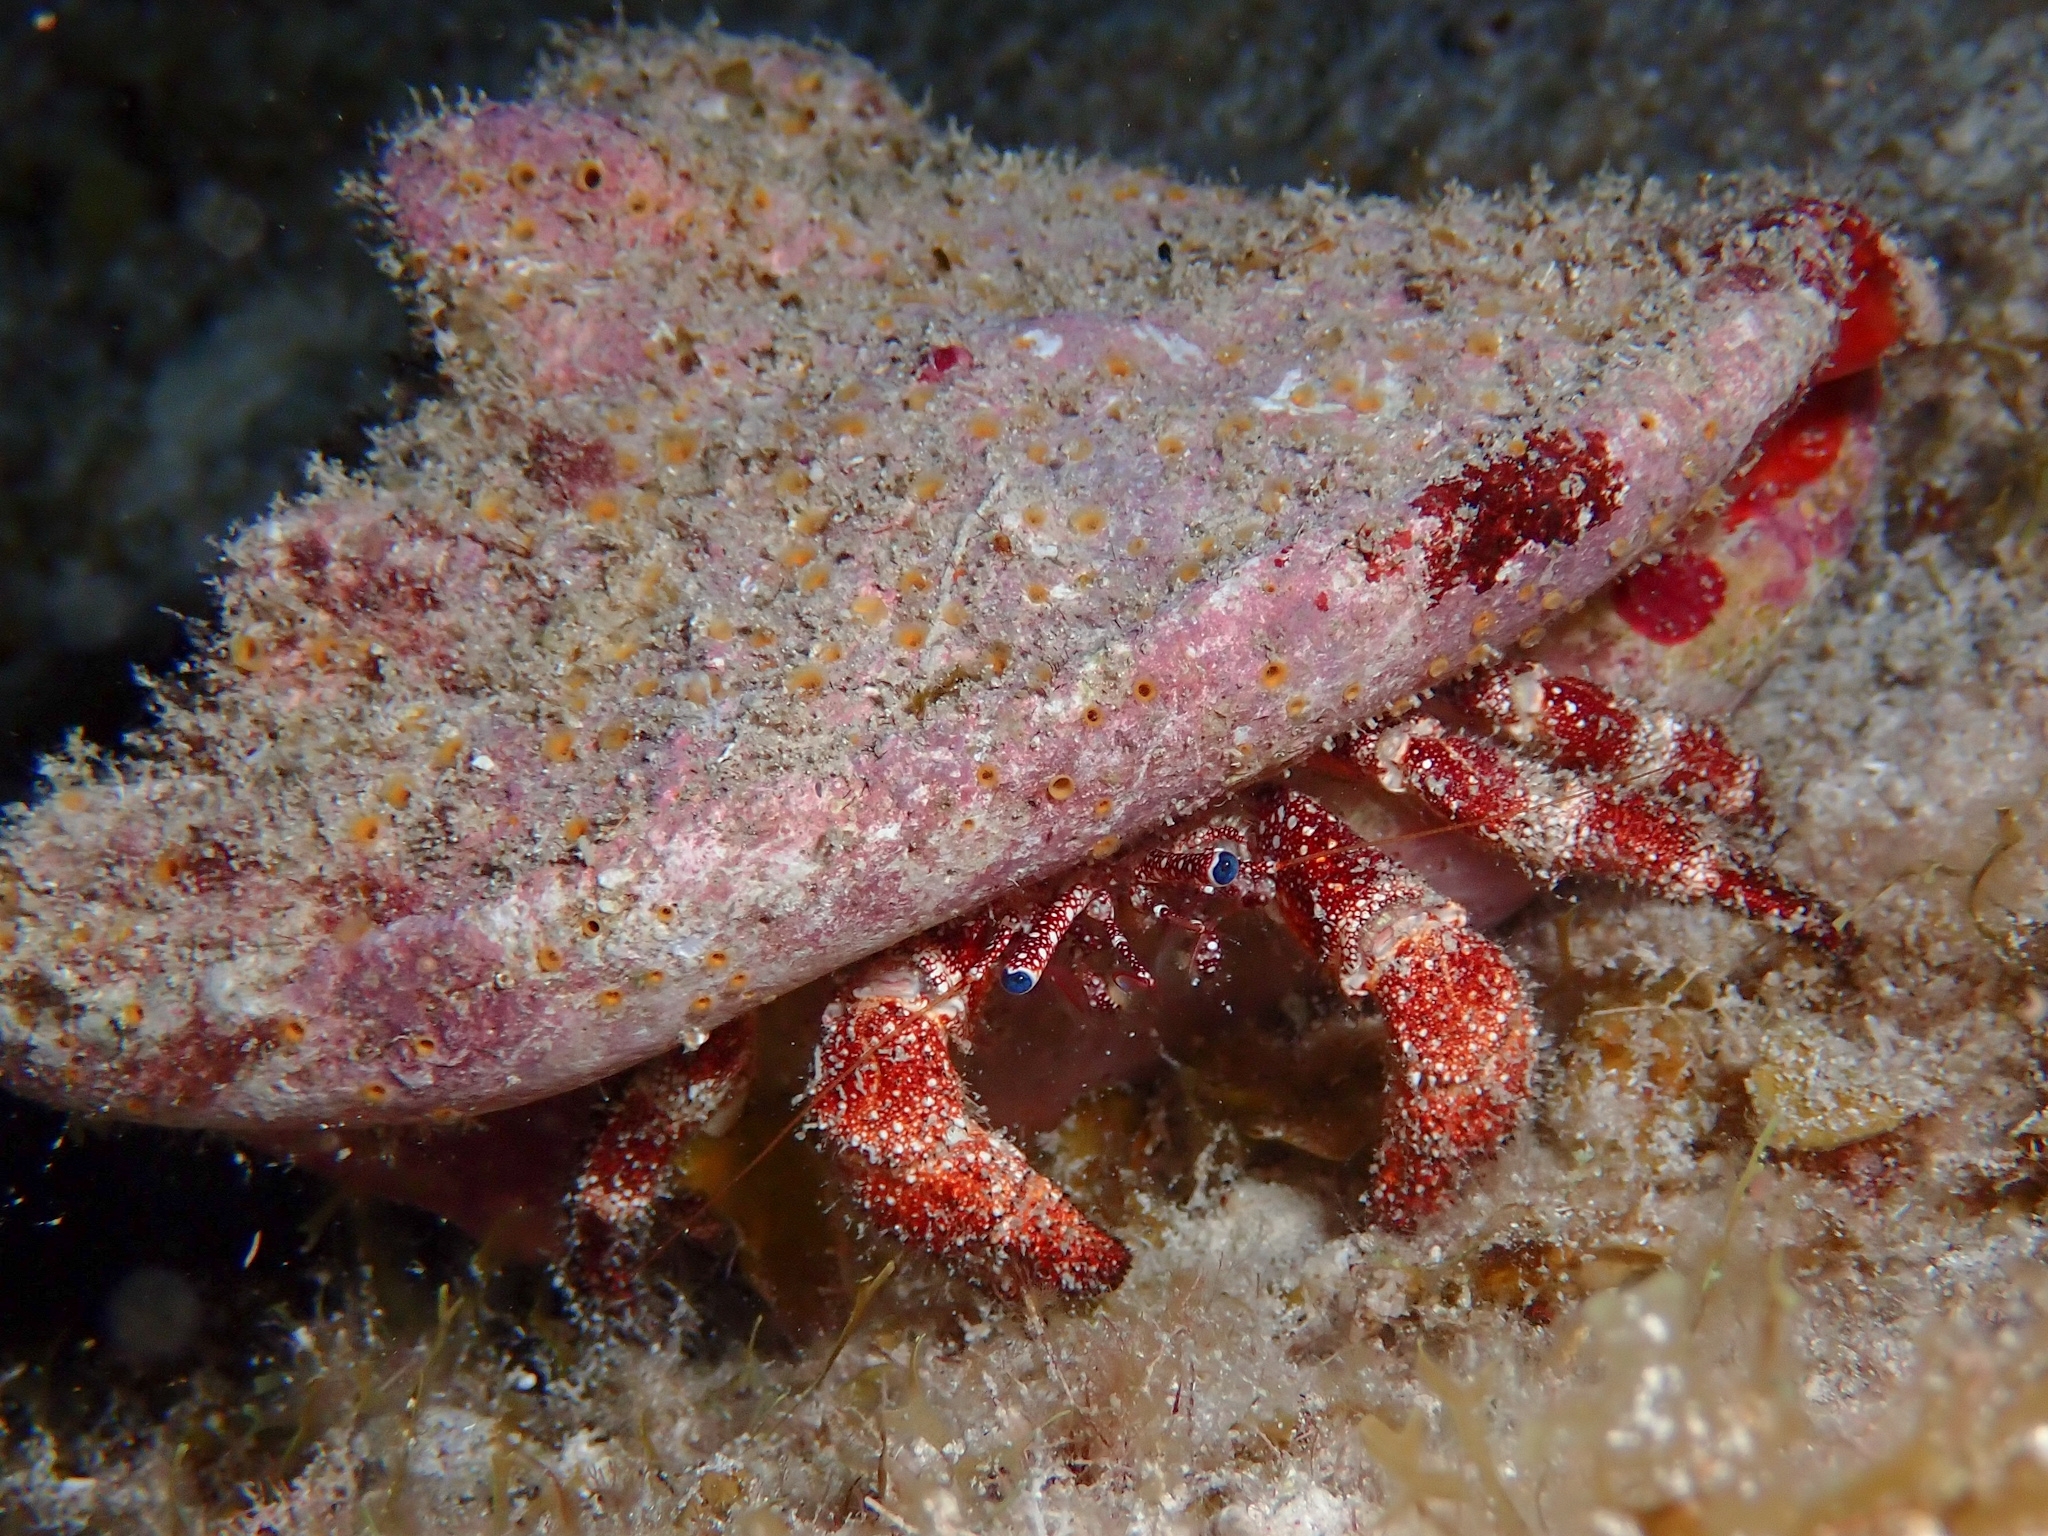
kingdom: Animalia
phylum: Arthropoda
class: Malacostraca
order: Decapoda
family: Diogenidae
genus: Paguristes
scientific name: Paguristes puncticeps
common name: White speckled hermit
